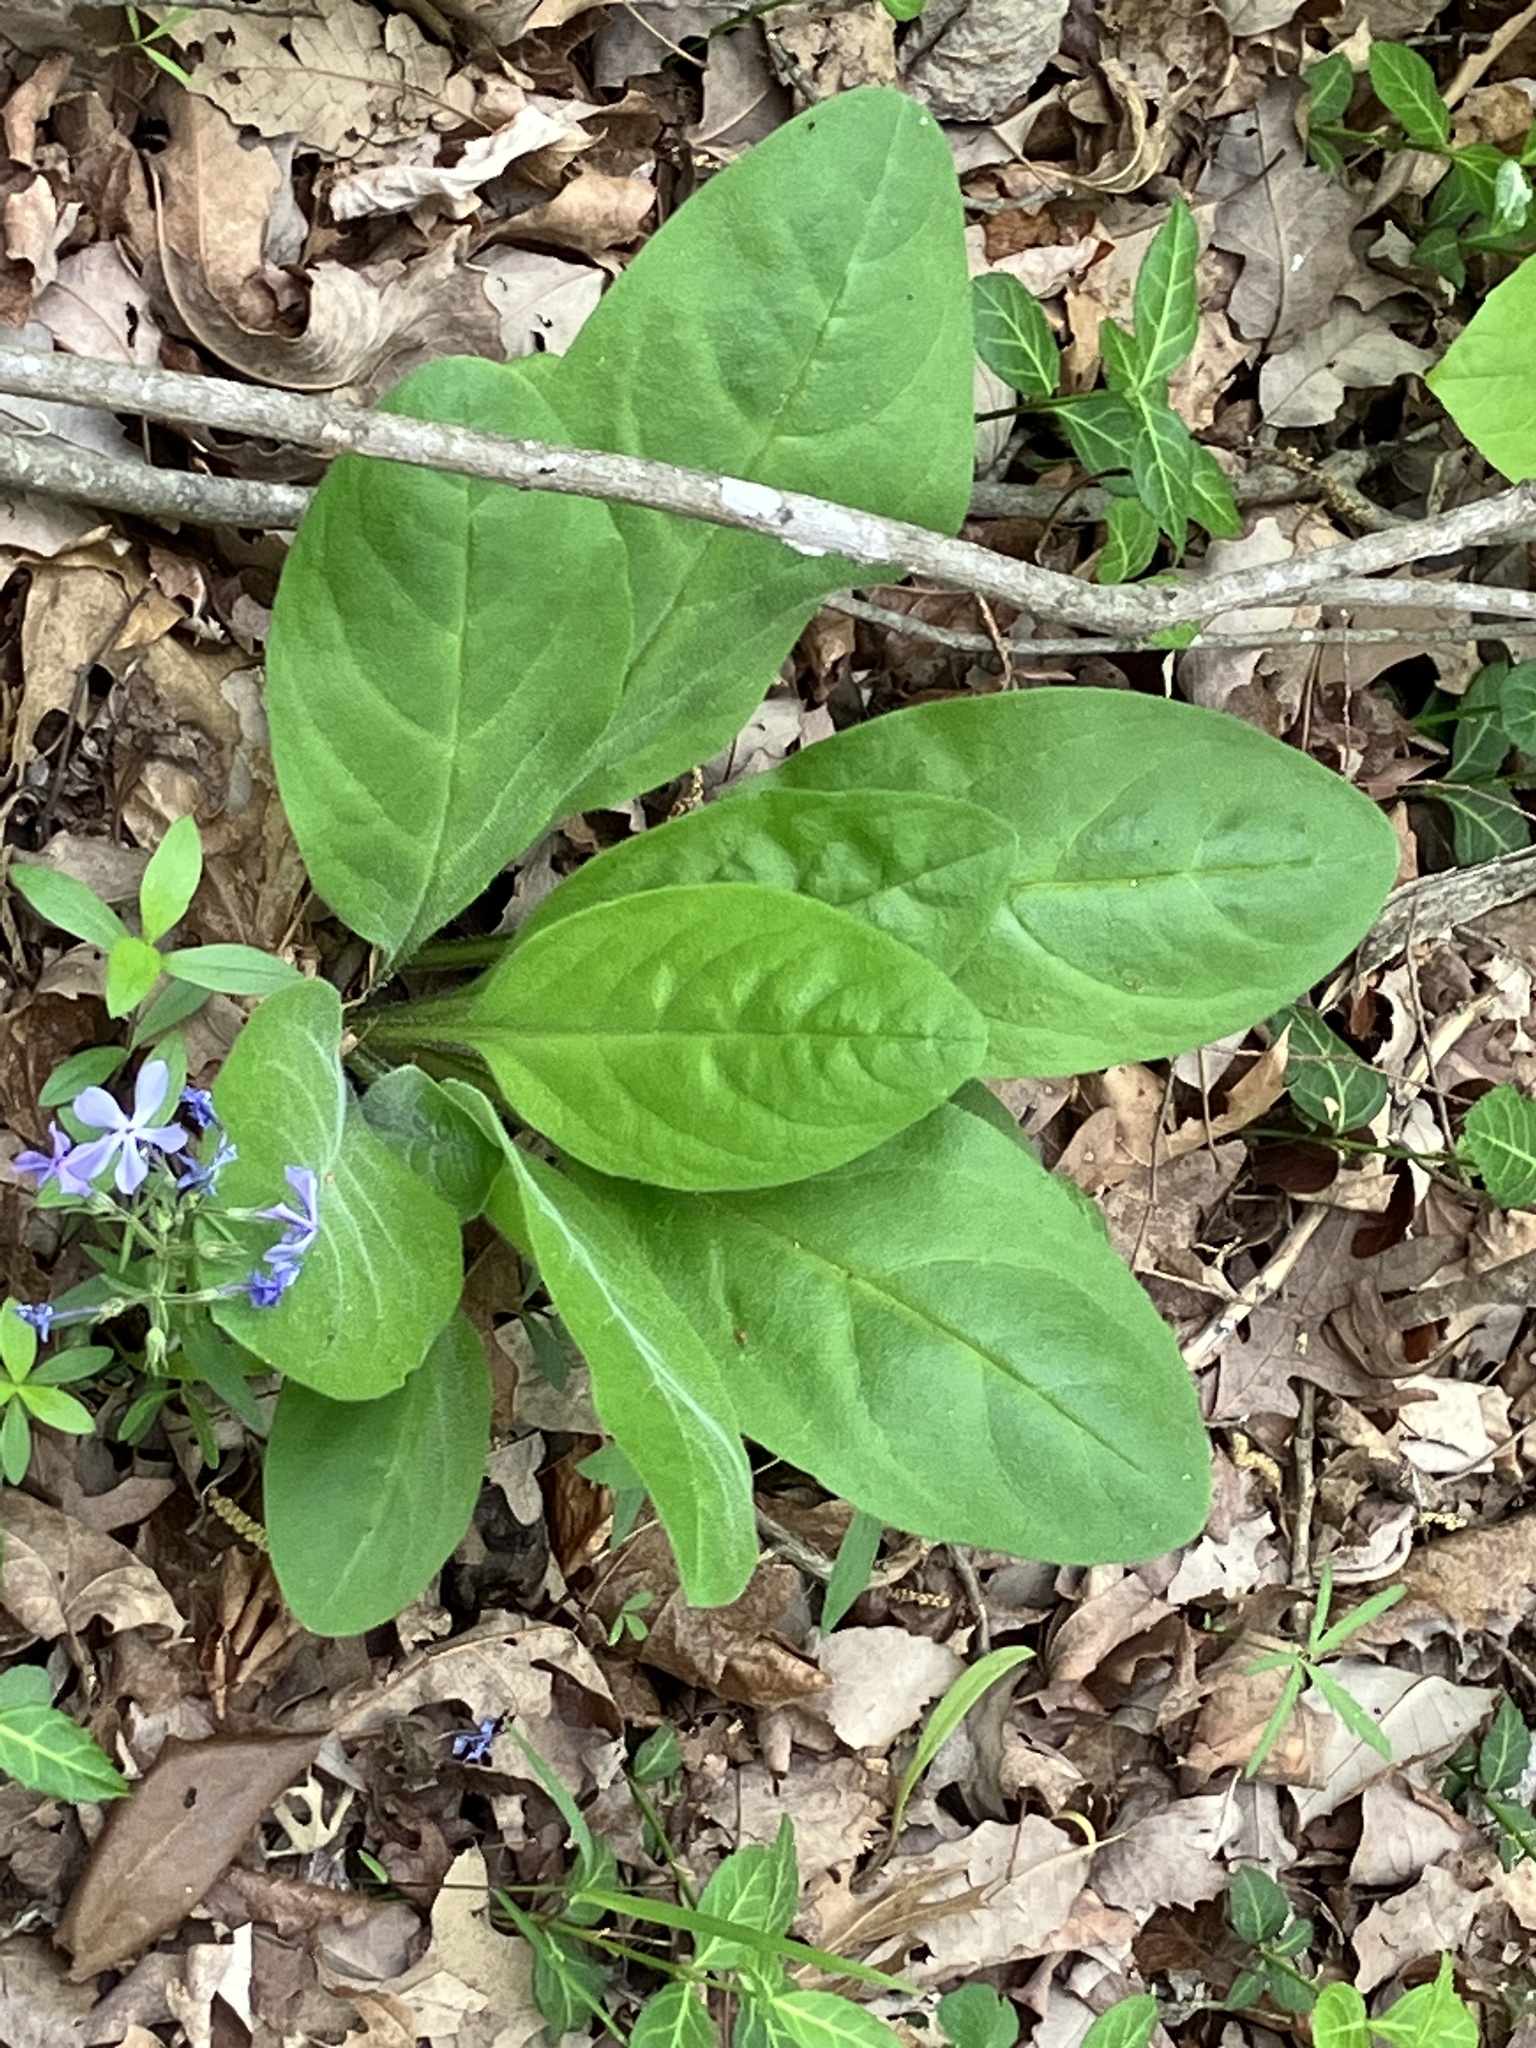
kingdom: Plantae
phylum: Tracheophyta
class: Magnoliopsida
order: Boraginales
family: Boraginaceae
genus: Andersonglossum
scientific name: Andersonglossum virginianum
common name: Wild comfrey
